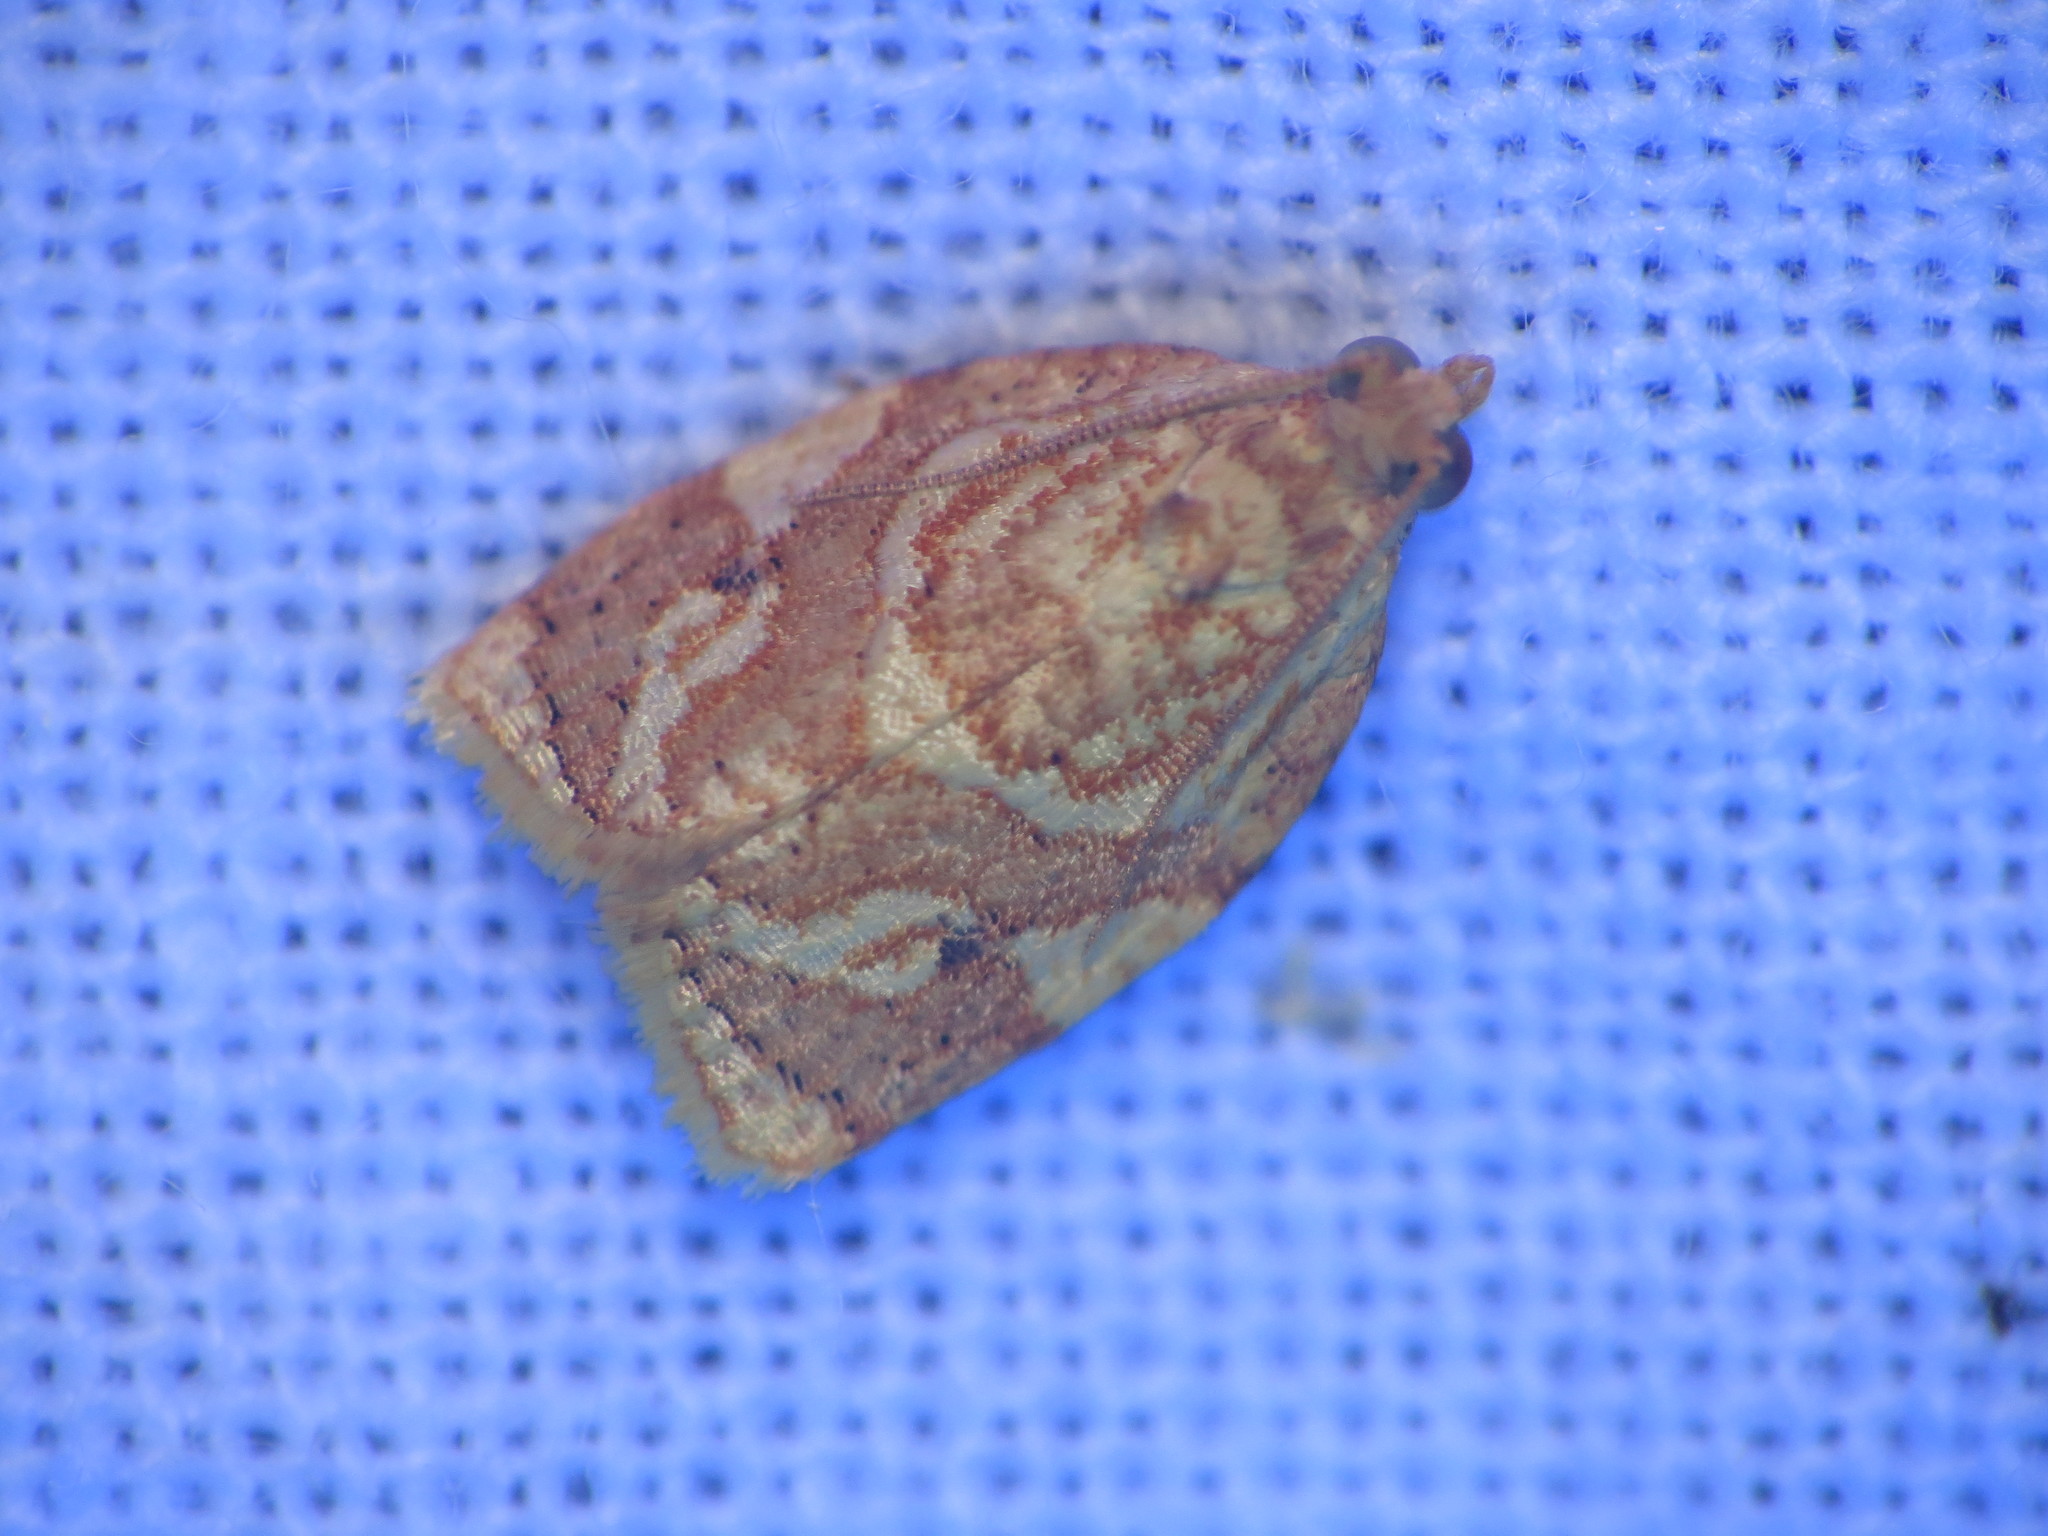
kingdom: Animalia
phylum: Arthropoda
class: Insecta
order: Lepidoptera
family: Tortricidae
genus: Adoxophyes
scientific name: Adoxophyes templana
